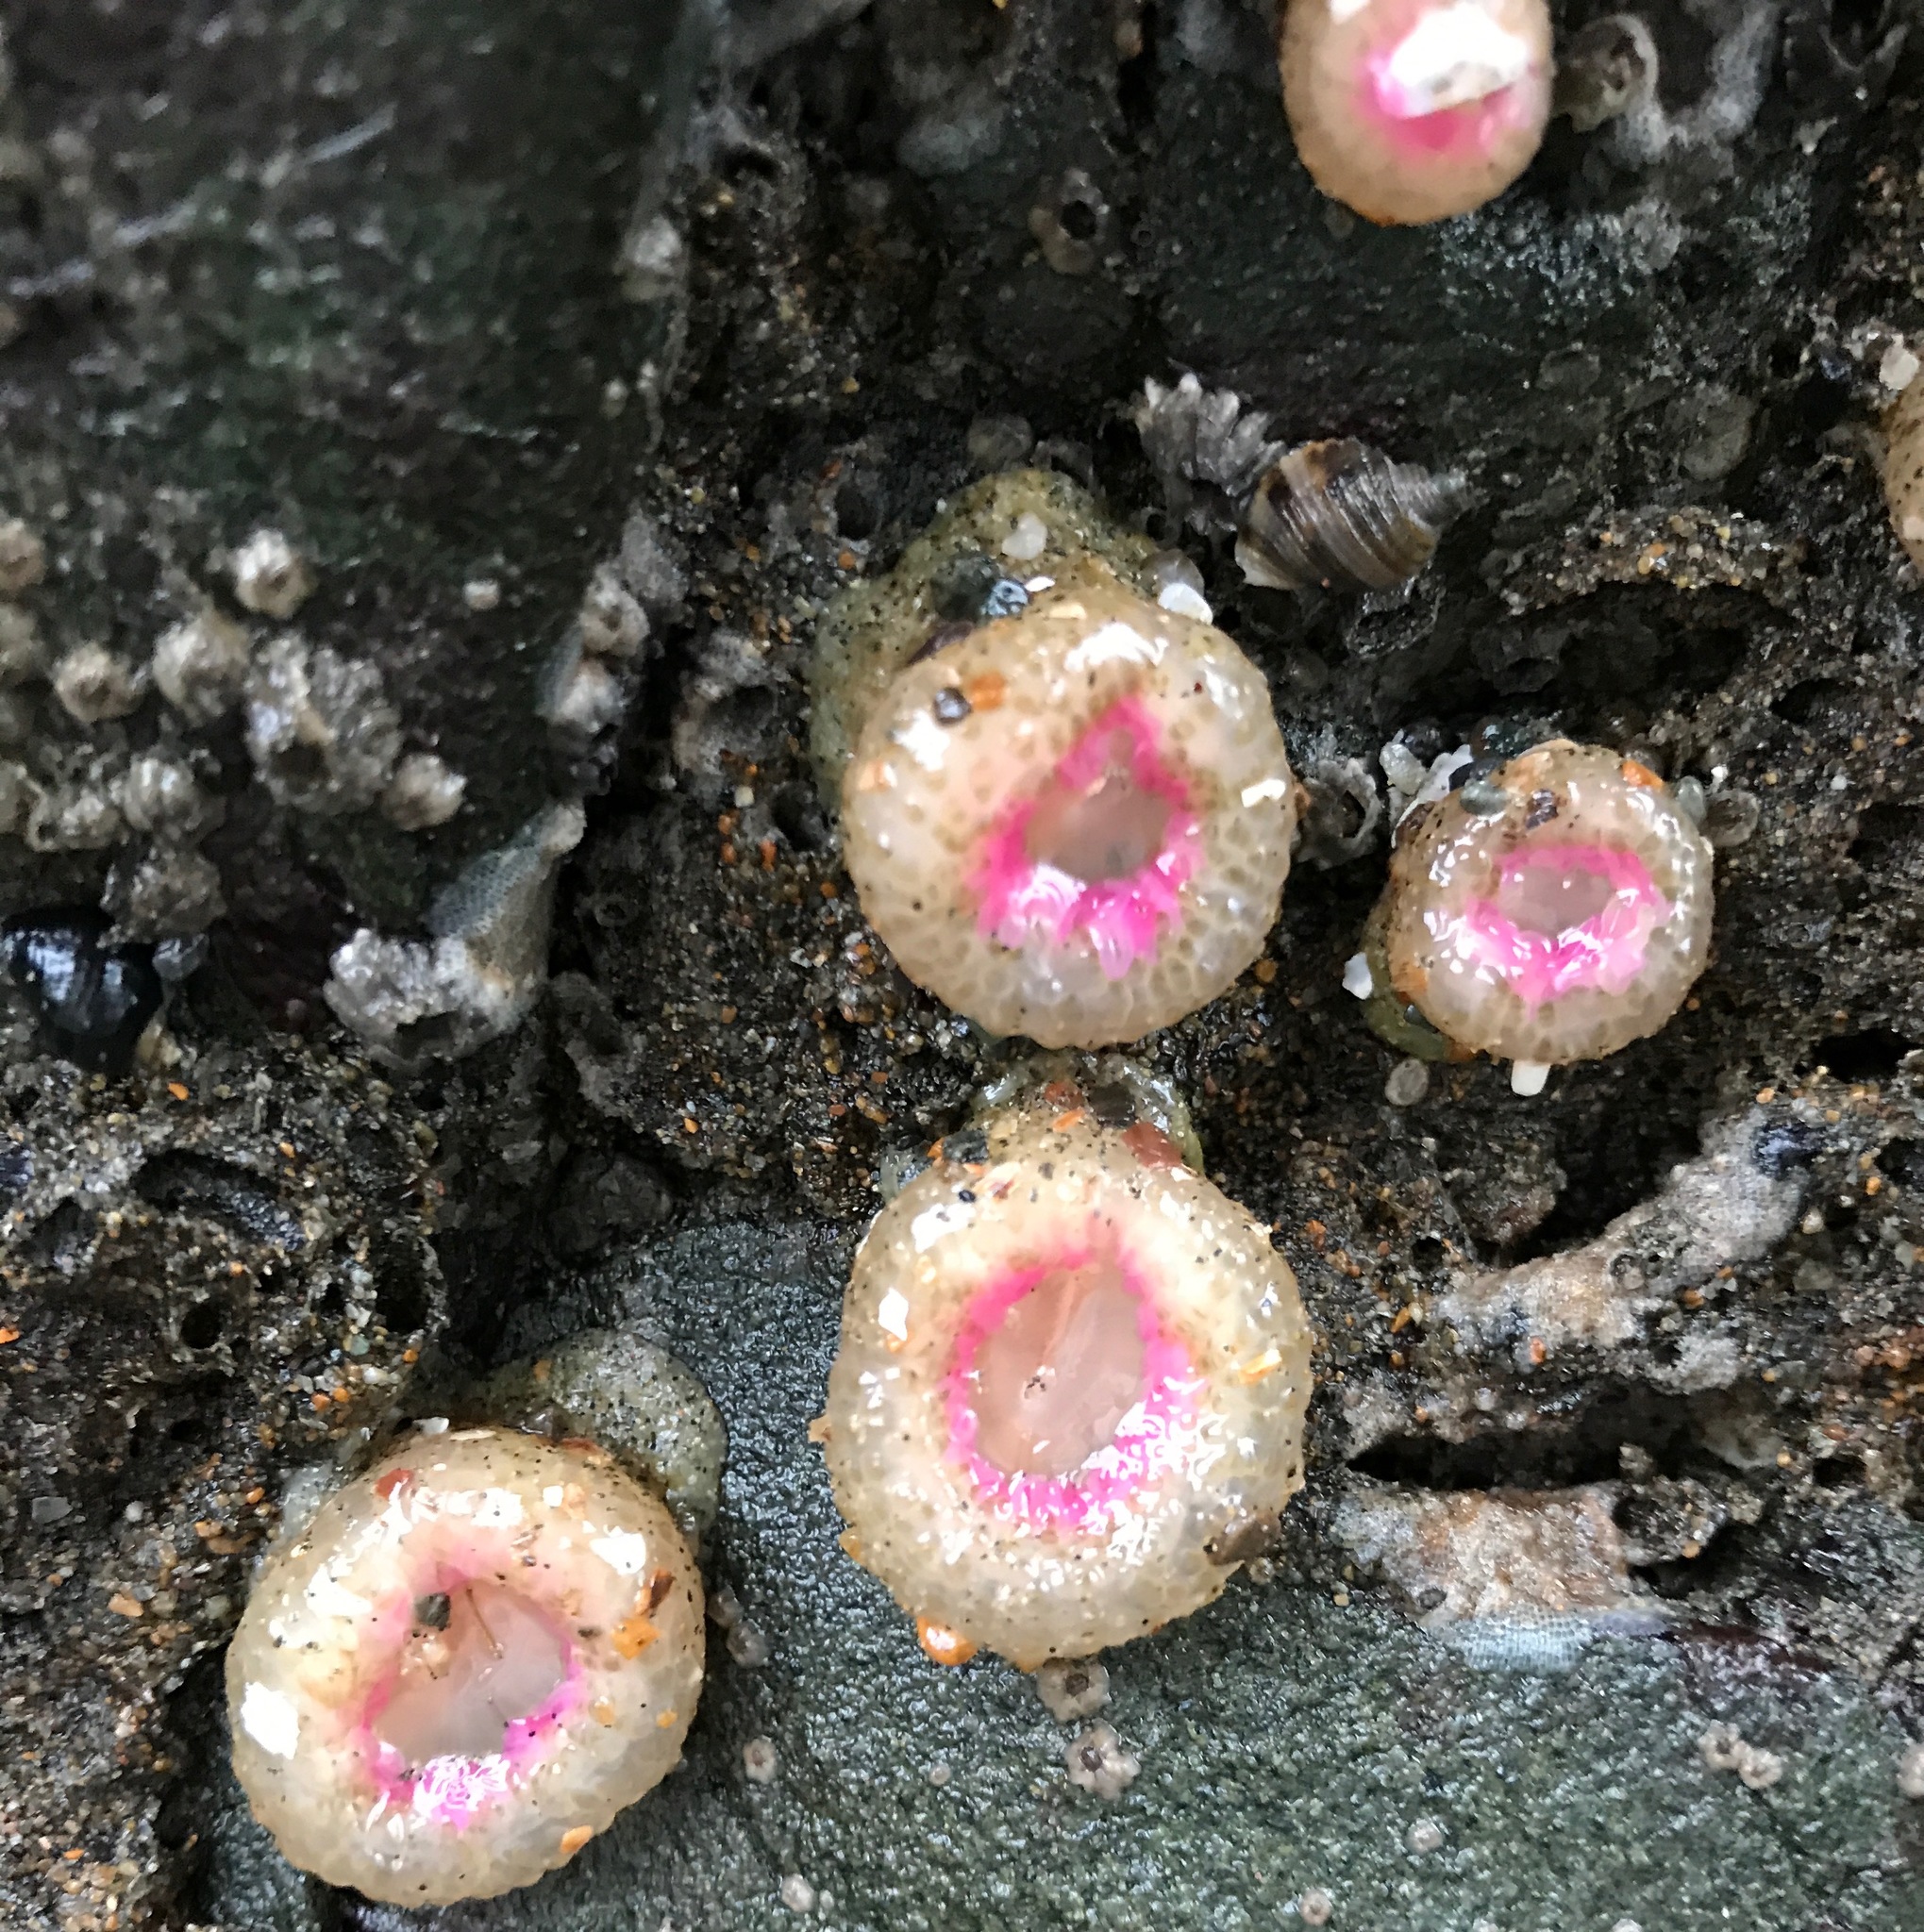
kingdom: Animalia
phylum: Cnidaria
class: Anthozoa
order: Actiniaria
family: Actiniidae
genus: Anthopleura
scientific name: Anthopleura elegantissima
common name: Clonal anemone
